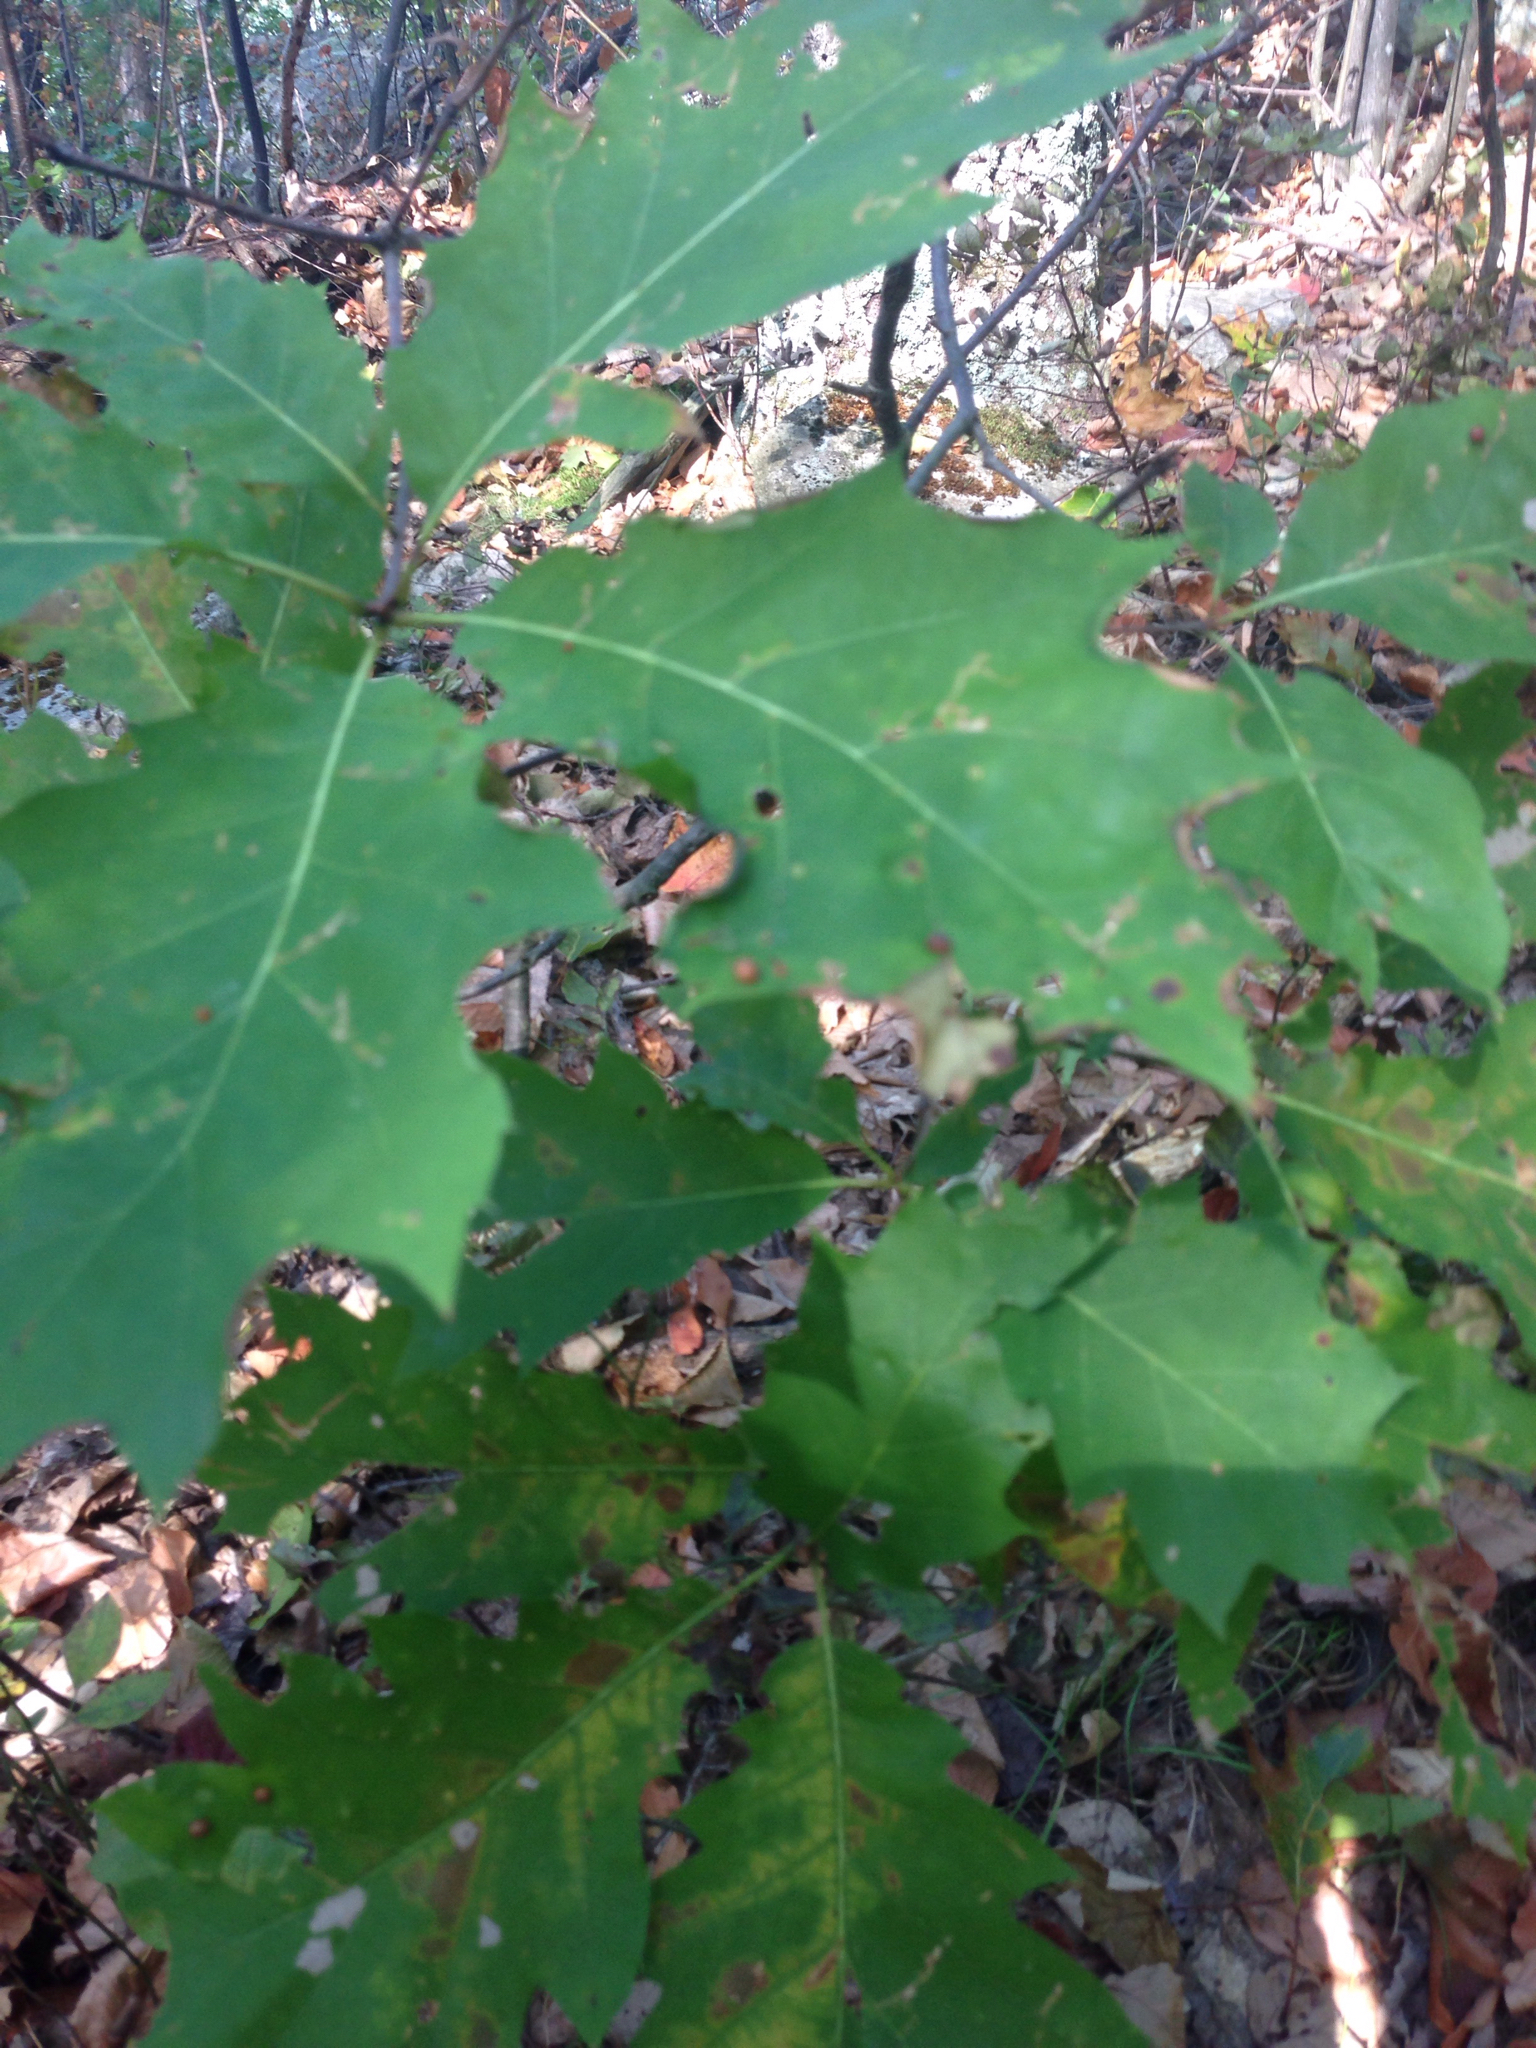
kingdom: Plantae
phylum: Tracheophyta
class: Magnoliopsida
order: Fagales
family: Fagaceae
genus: Quercus
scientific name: Quercus rubra
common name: Red oak
